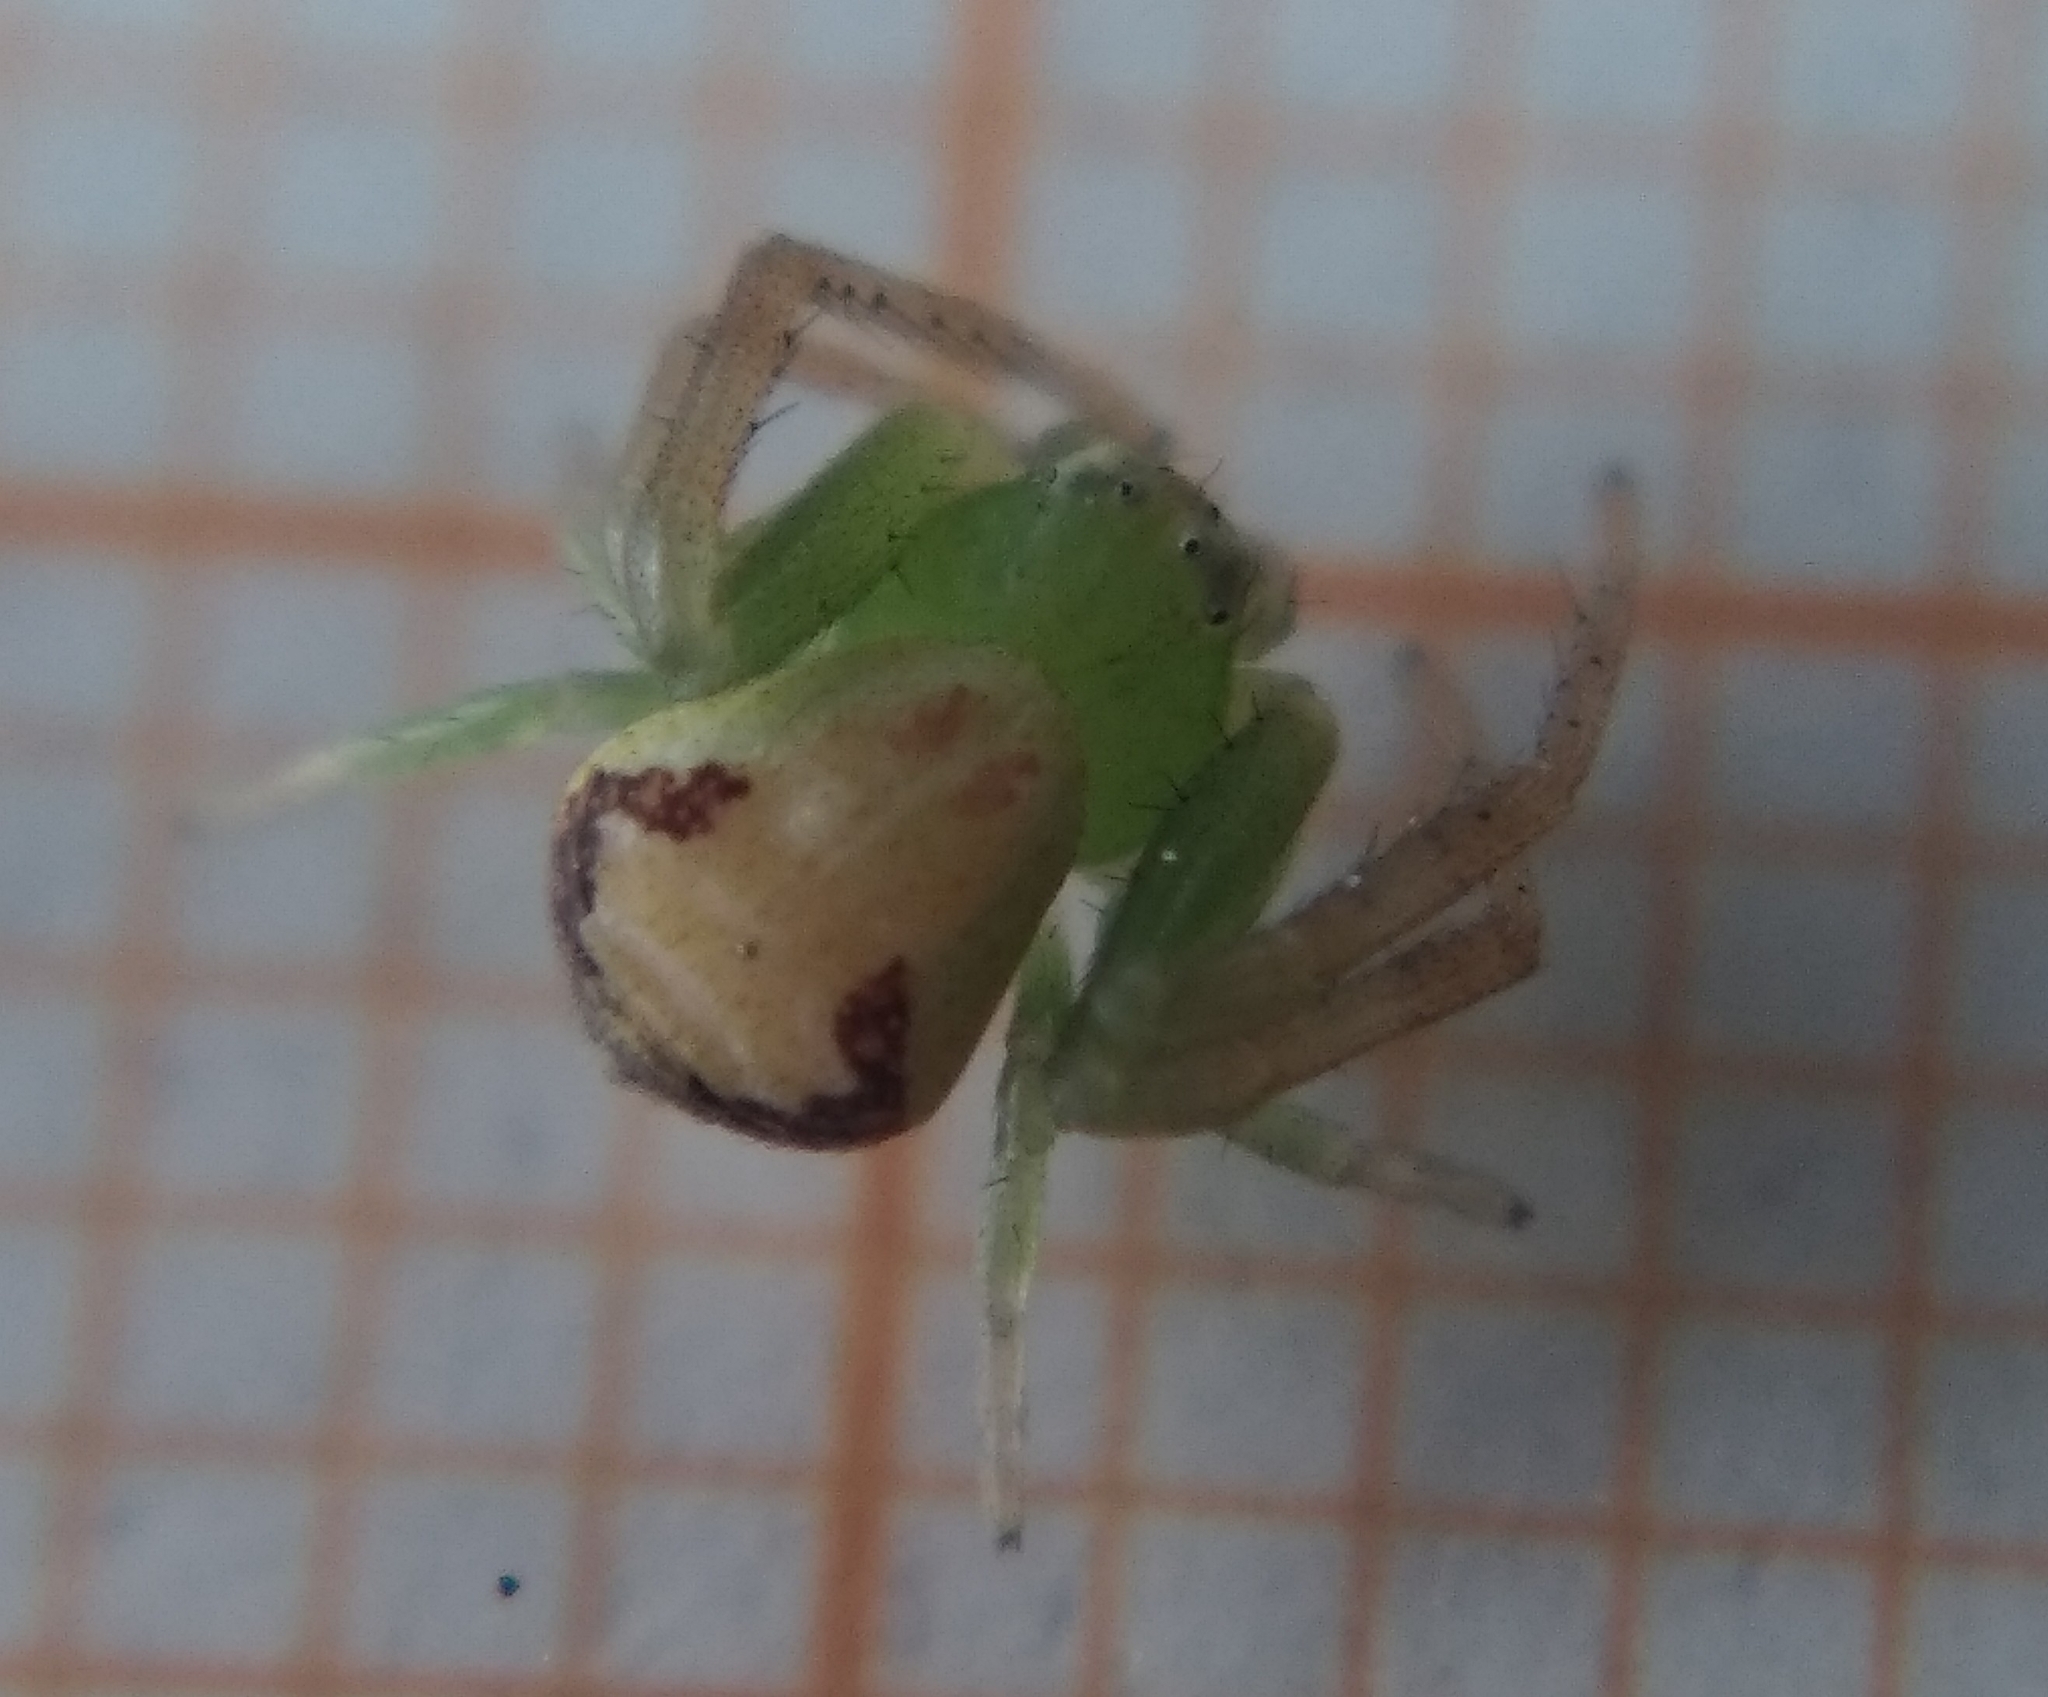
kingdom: Animalia
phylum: Arthropoda
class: Arachnida
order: Araneae
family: Thomisidae
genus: Ebrechtella
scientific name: Ebrechtella tricuspidata
